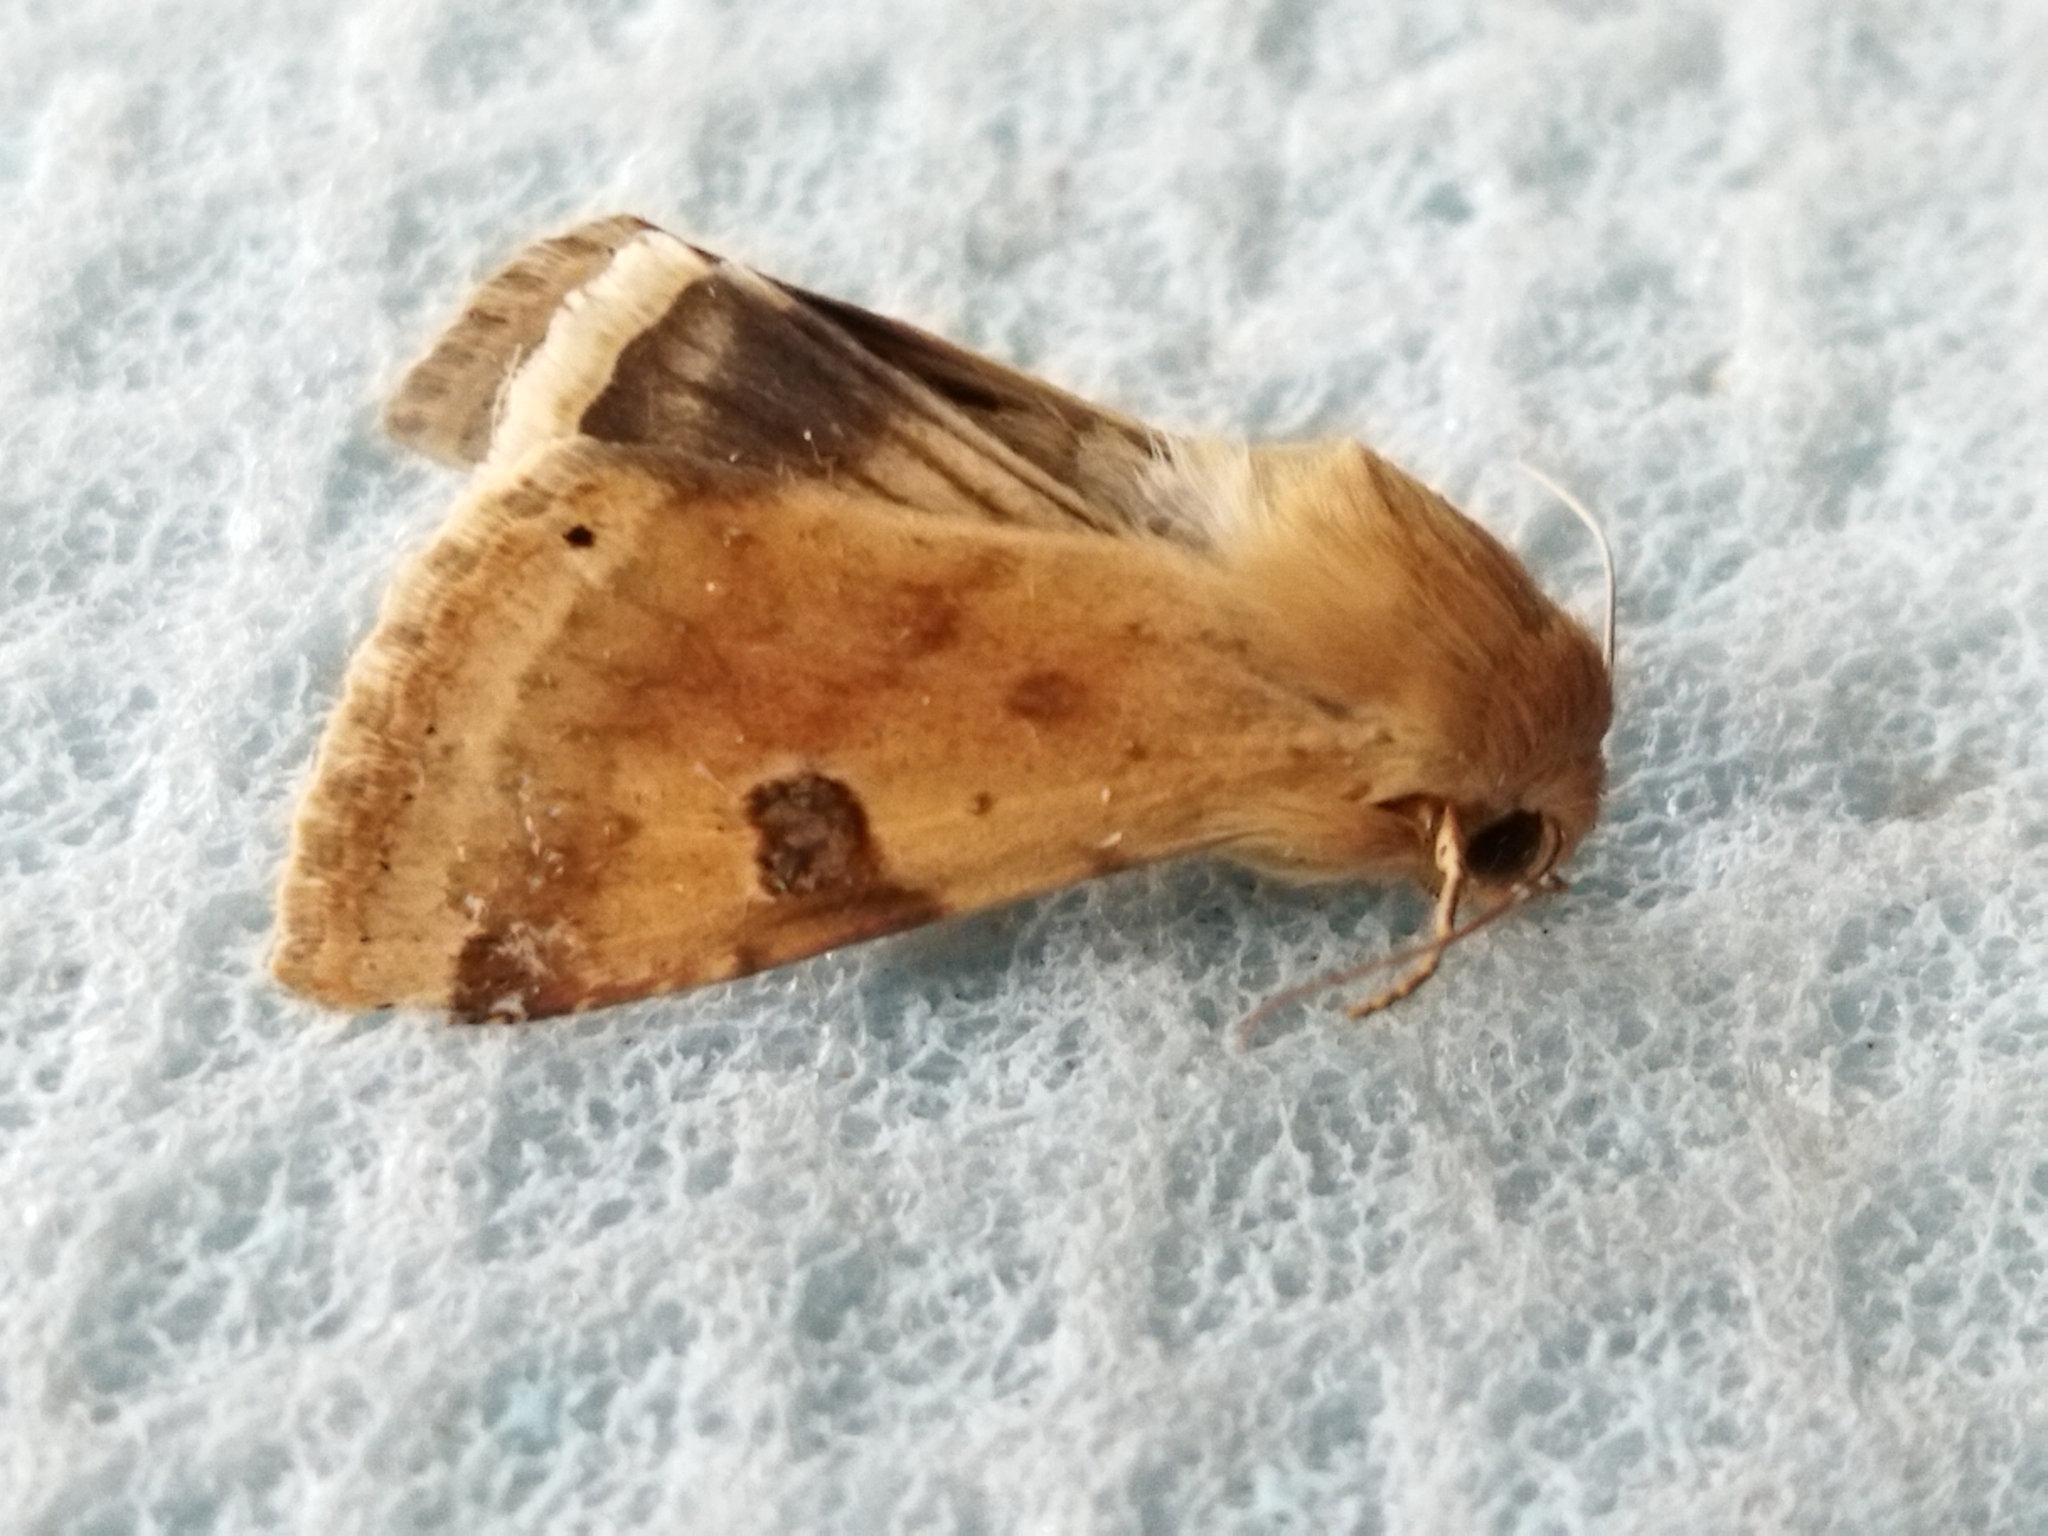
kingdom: Animalia
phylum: Arthropoda
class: Insecta
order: Lepidoptera
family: Noctuidae
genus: Heliothis
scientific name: Heliothis peltigera
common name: Bordered straw
